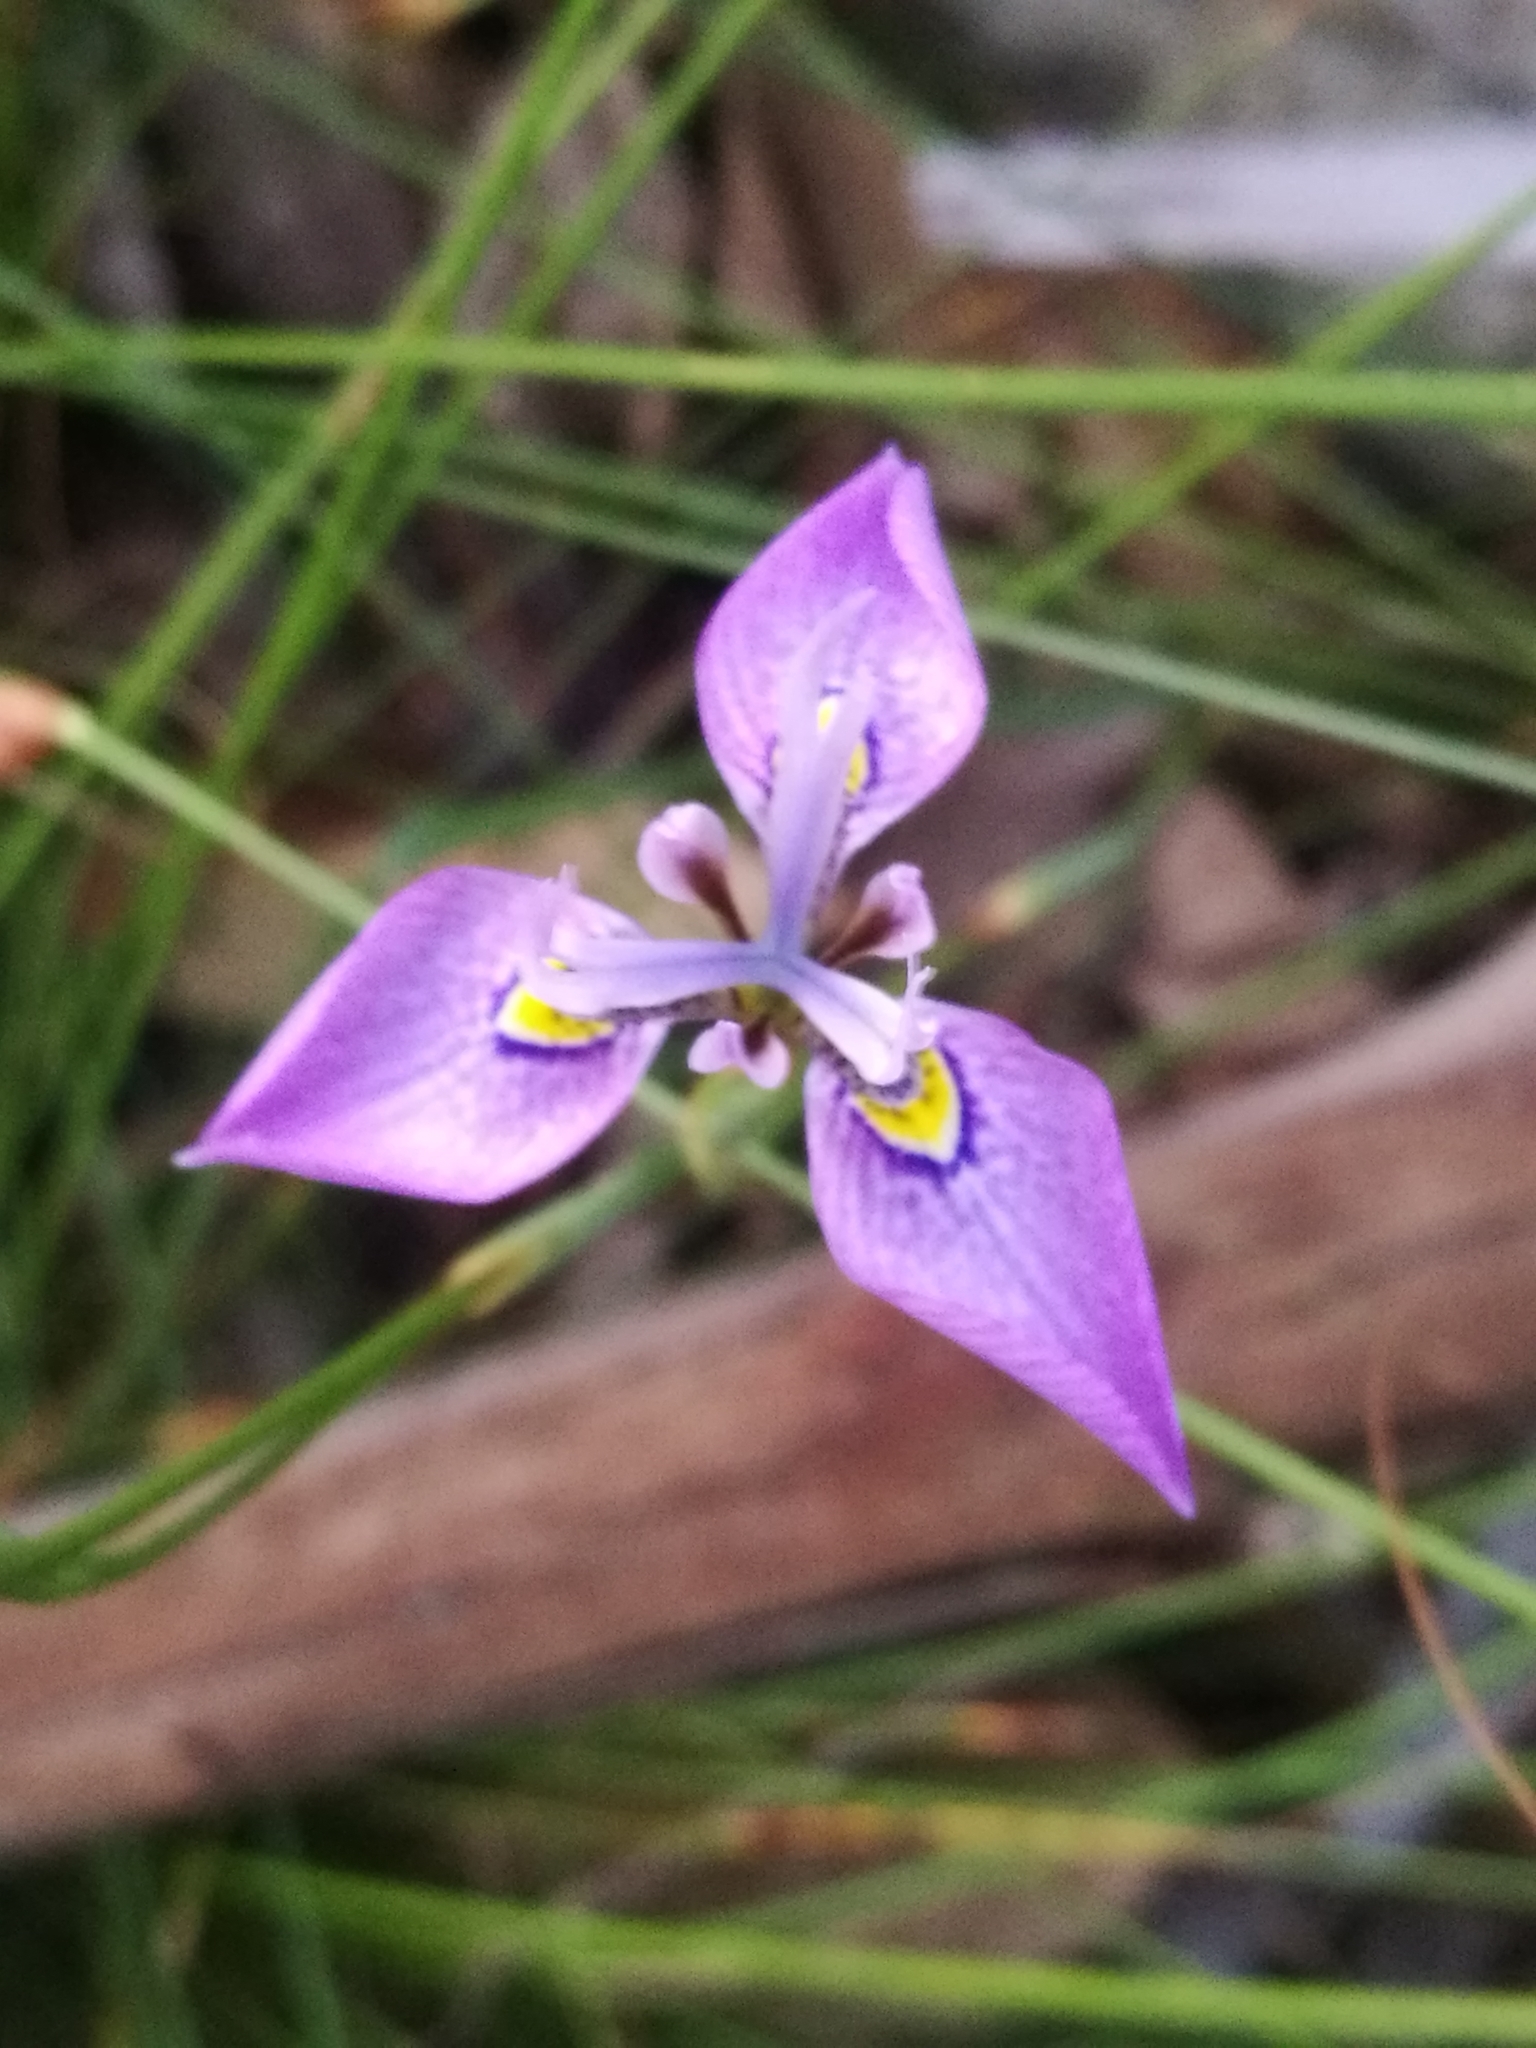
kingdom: Plantae
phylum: Tracheophyta
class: Liliopsida
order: Asparagales
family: Iridaceae
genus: Moraea
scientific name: Moraea algoensis
